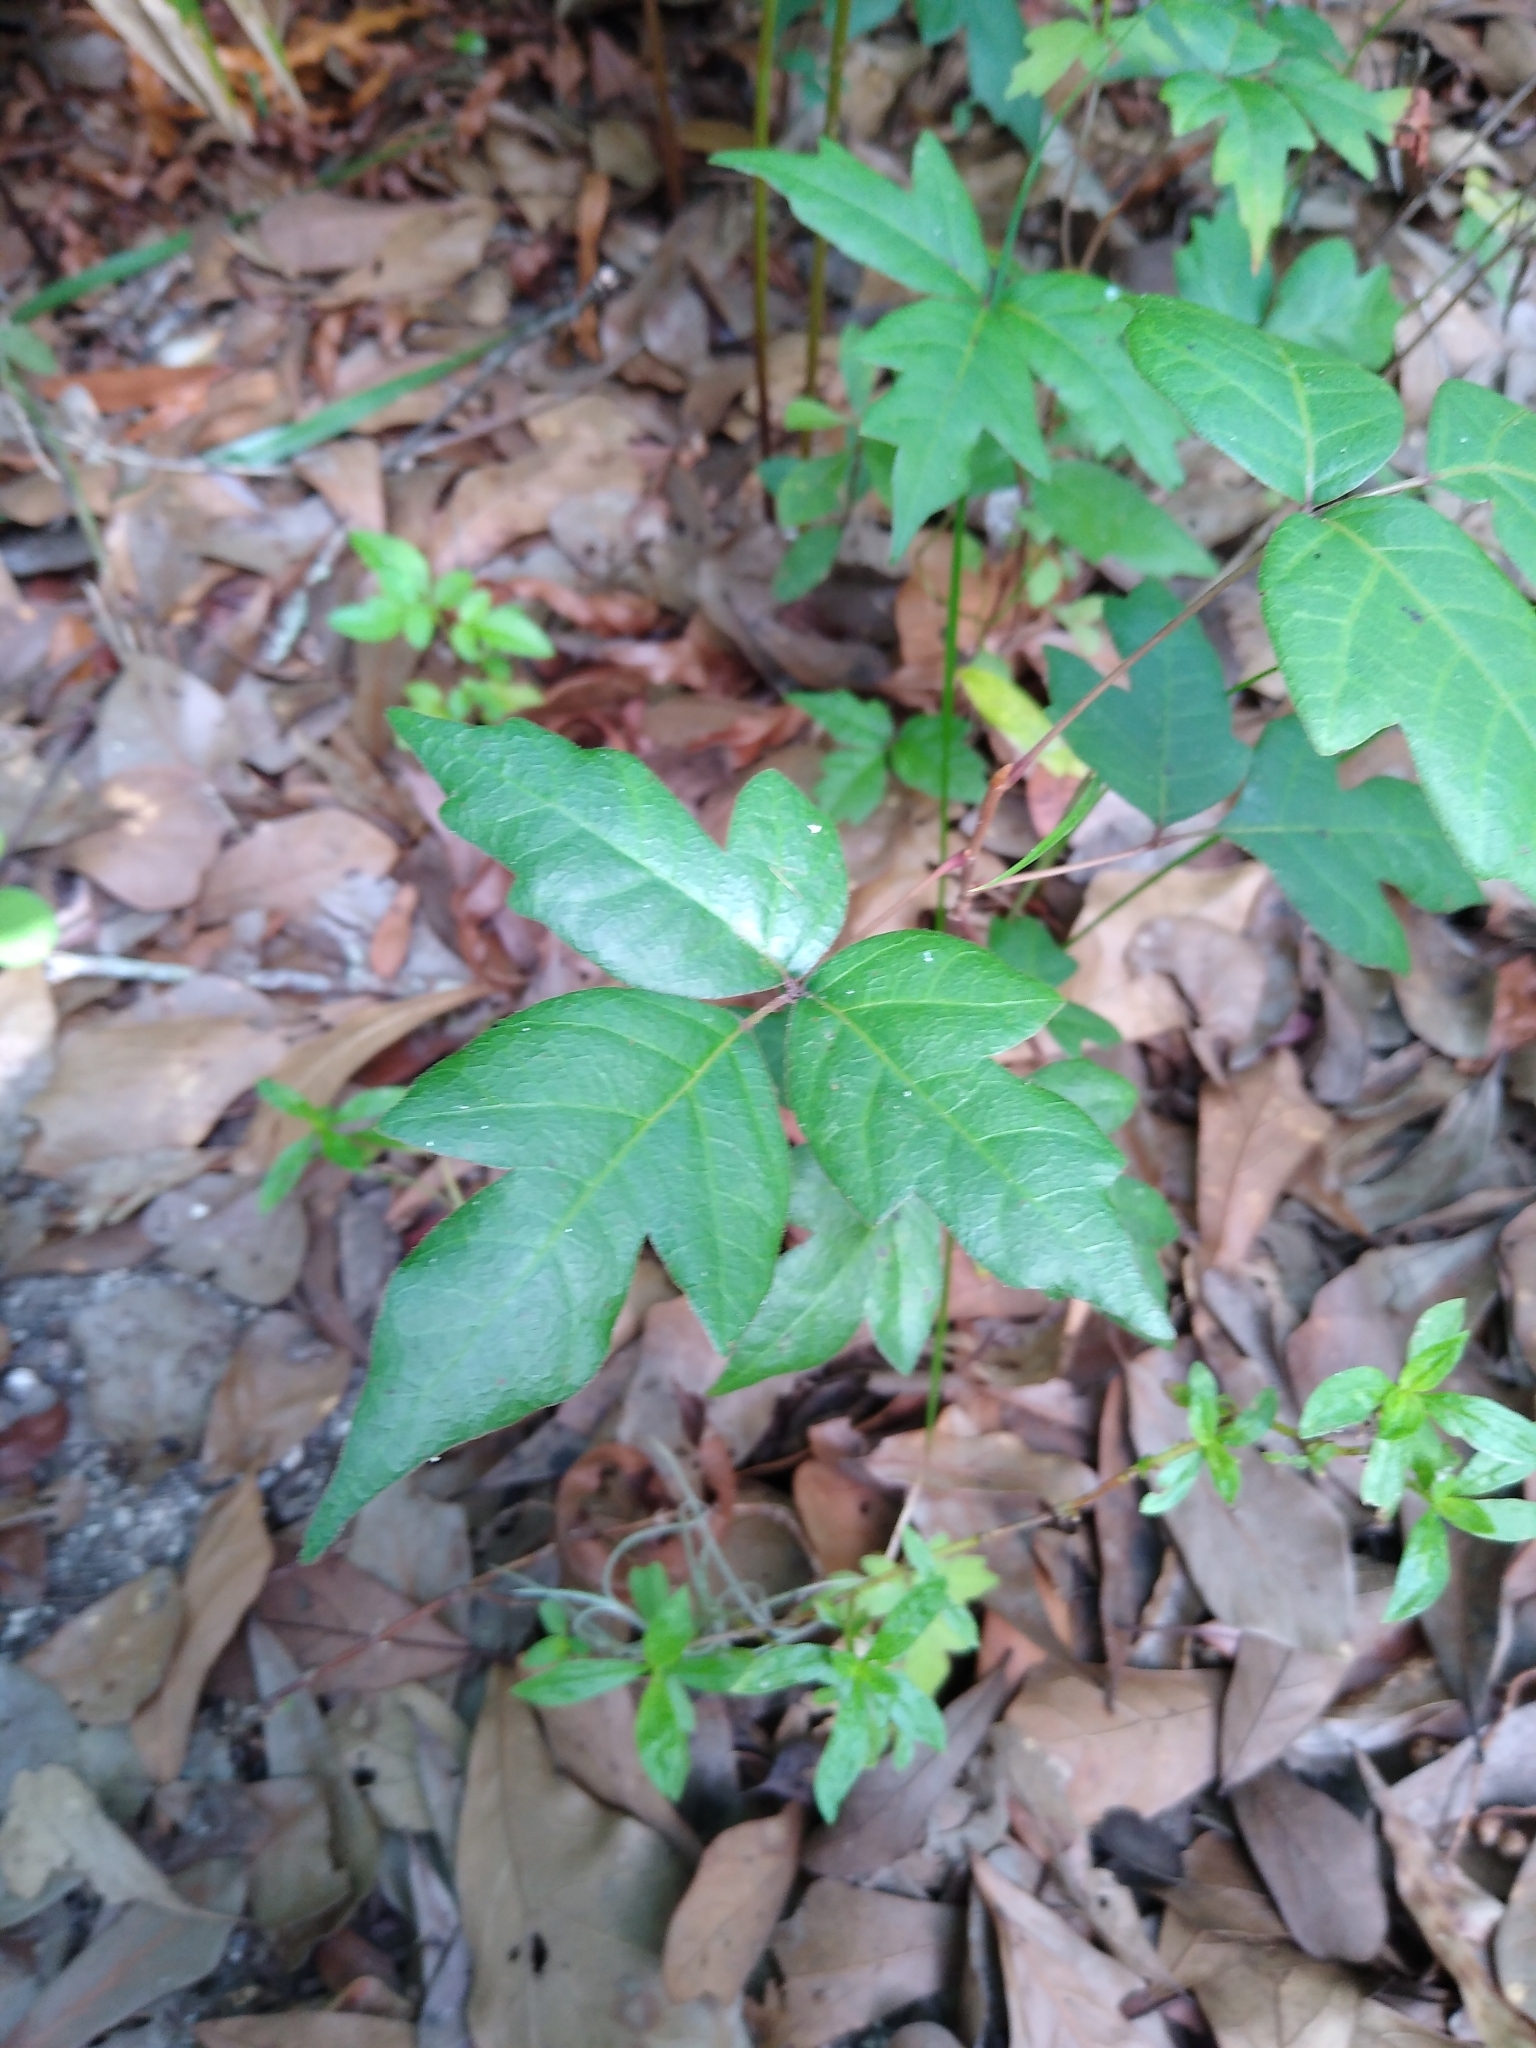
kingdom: Plantae
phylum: Tracheophyta
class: Magnoliopsida
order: Sapindales
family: Anacardiaceae
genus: Toxicodendron
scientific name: Toxicodendron radicans
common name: Poison ivy
